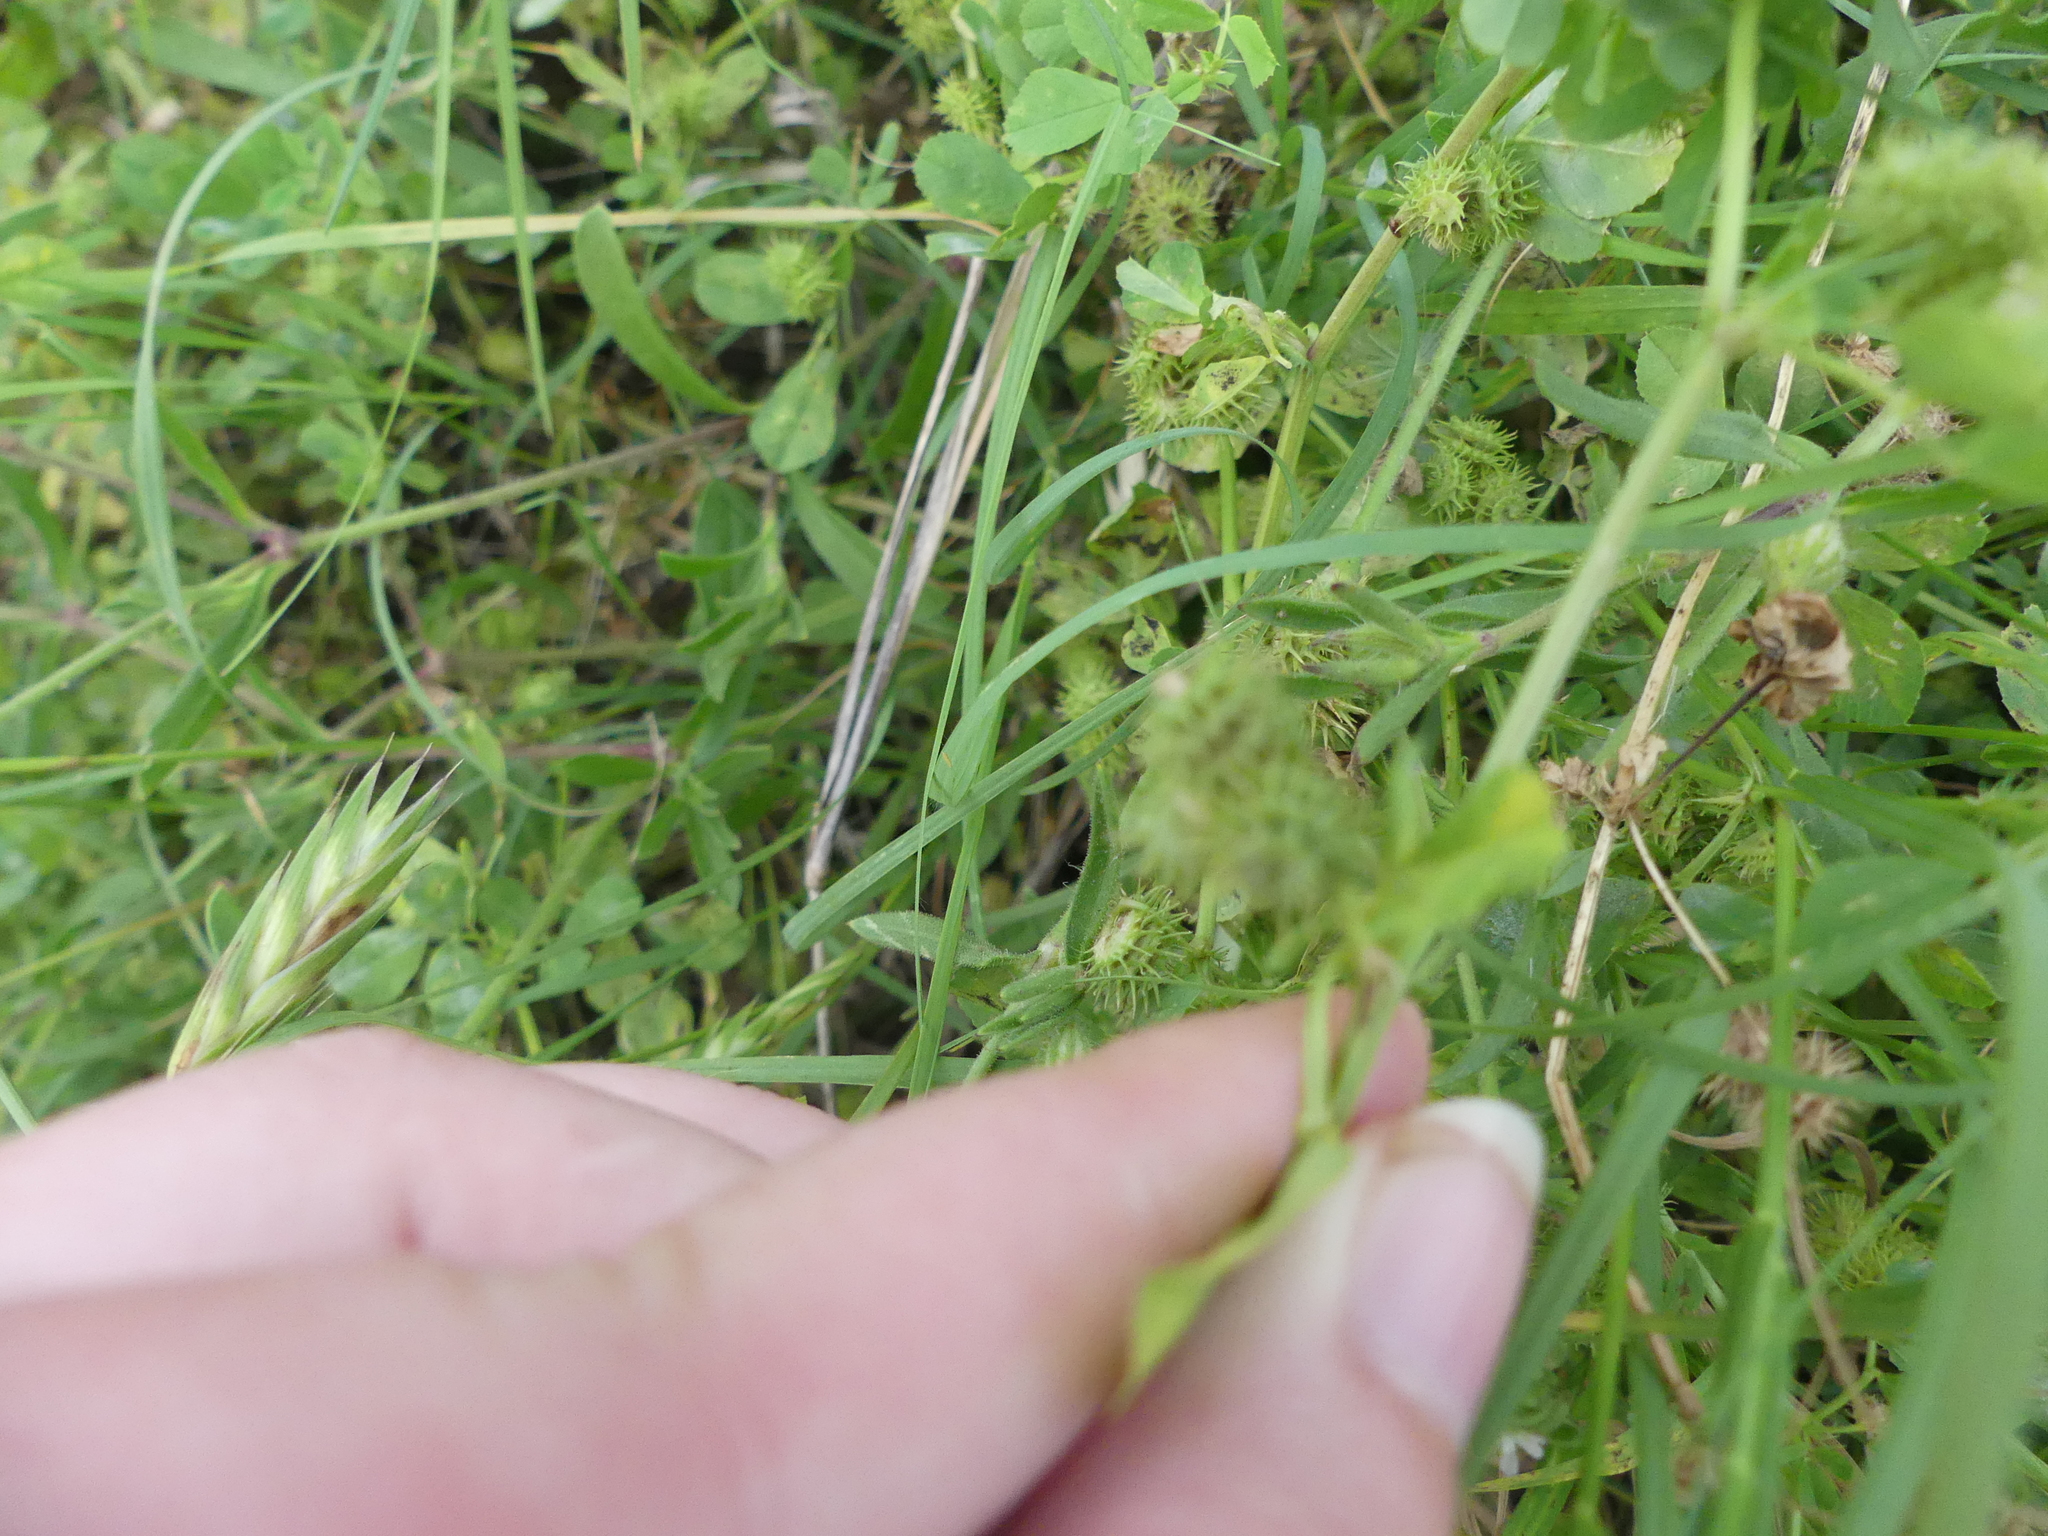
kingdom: Plantae
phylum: Tracheophyta
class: Magnoliopsida
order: Fabales
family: Fabaceae
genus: Medicago
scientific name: Medicago polymorpha
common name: Burclover
